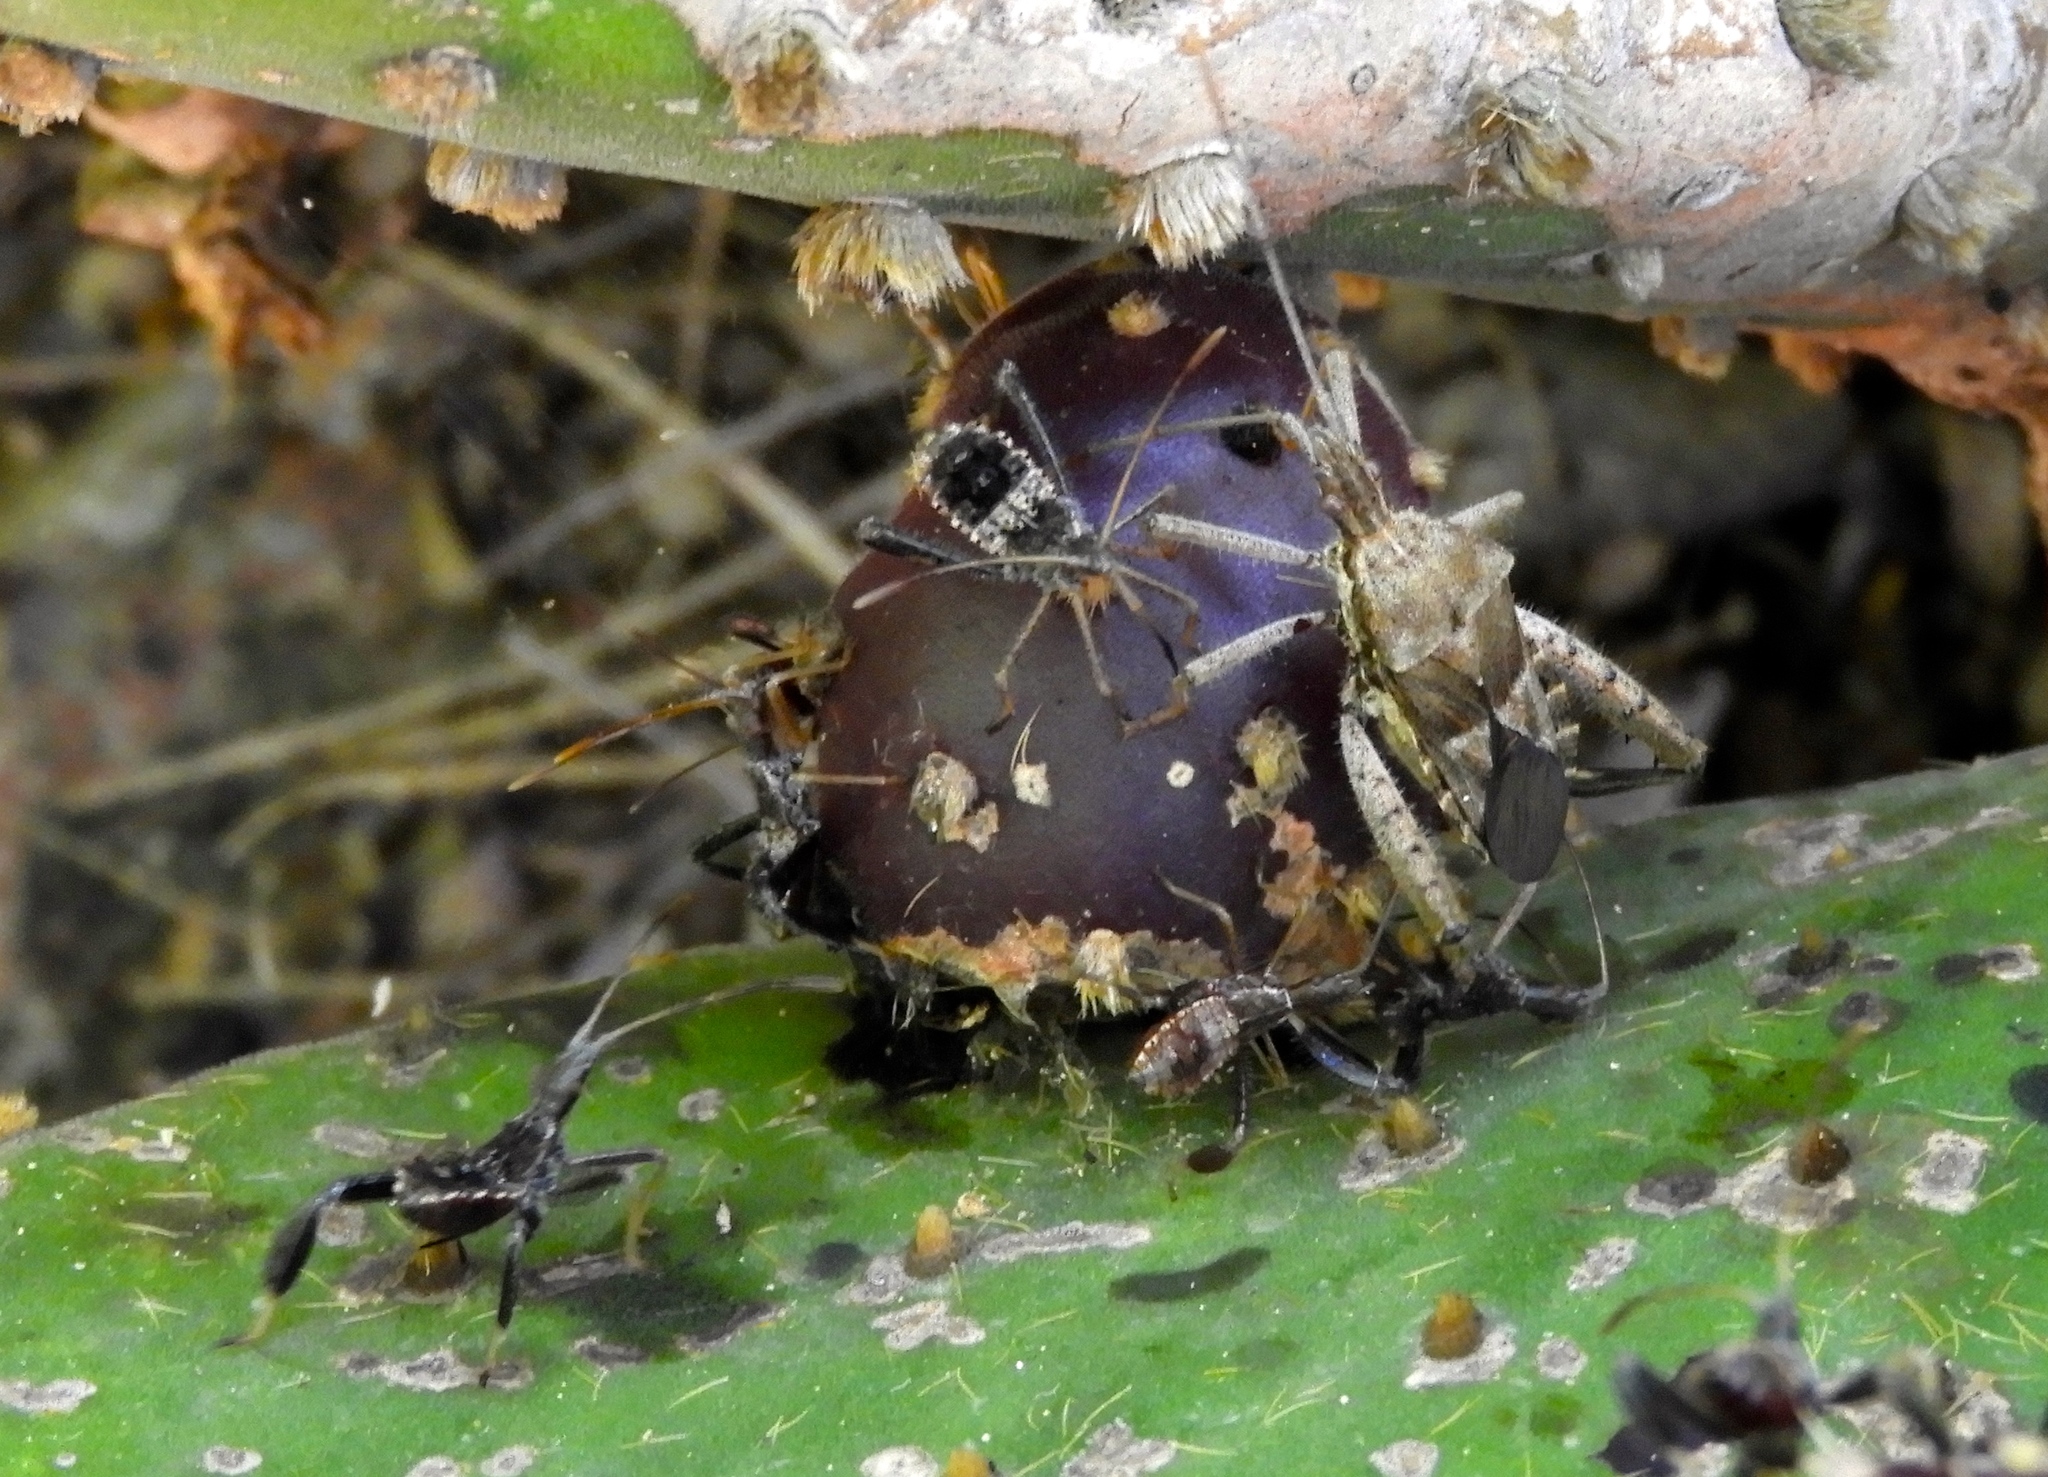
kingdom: Animalia
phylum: Arthropoda
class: Insecta
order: Hemiptera
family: Coreidae
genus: Narnia
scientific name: Narnia femorata
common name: Leaf-footed cactus bug
